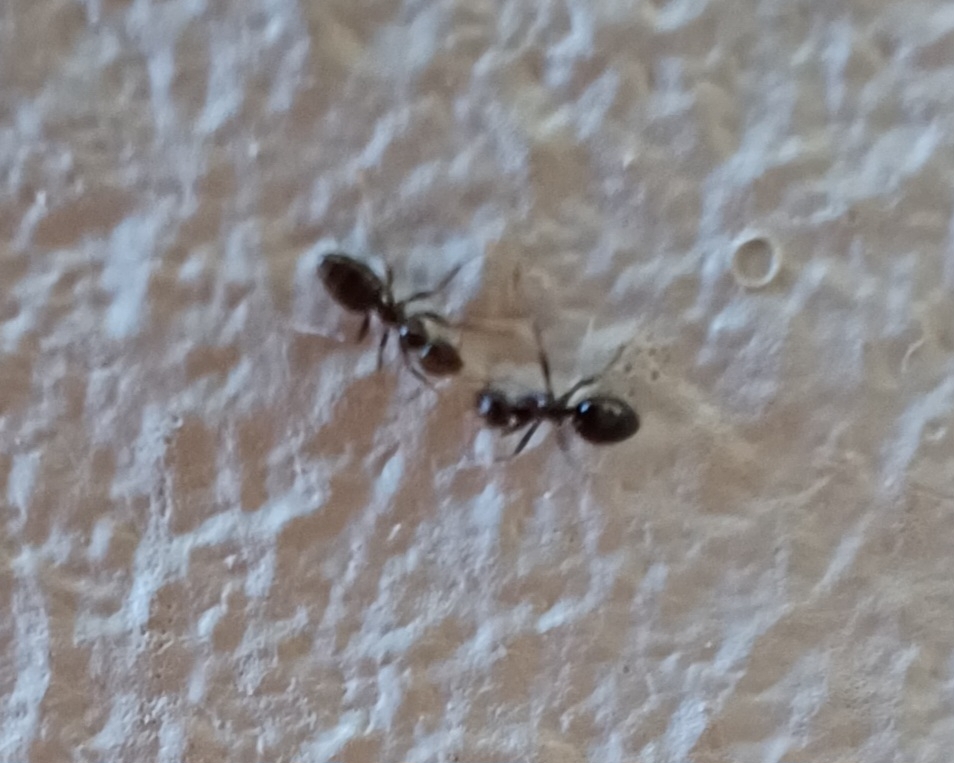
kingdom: Animalia
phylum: Arthropoda
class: Insecta
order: Hymenoptera
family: Formicidae
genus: Lepisiota
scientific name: Lepisiota capensis
